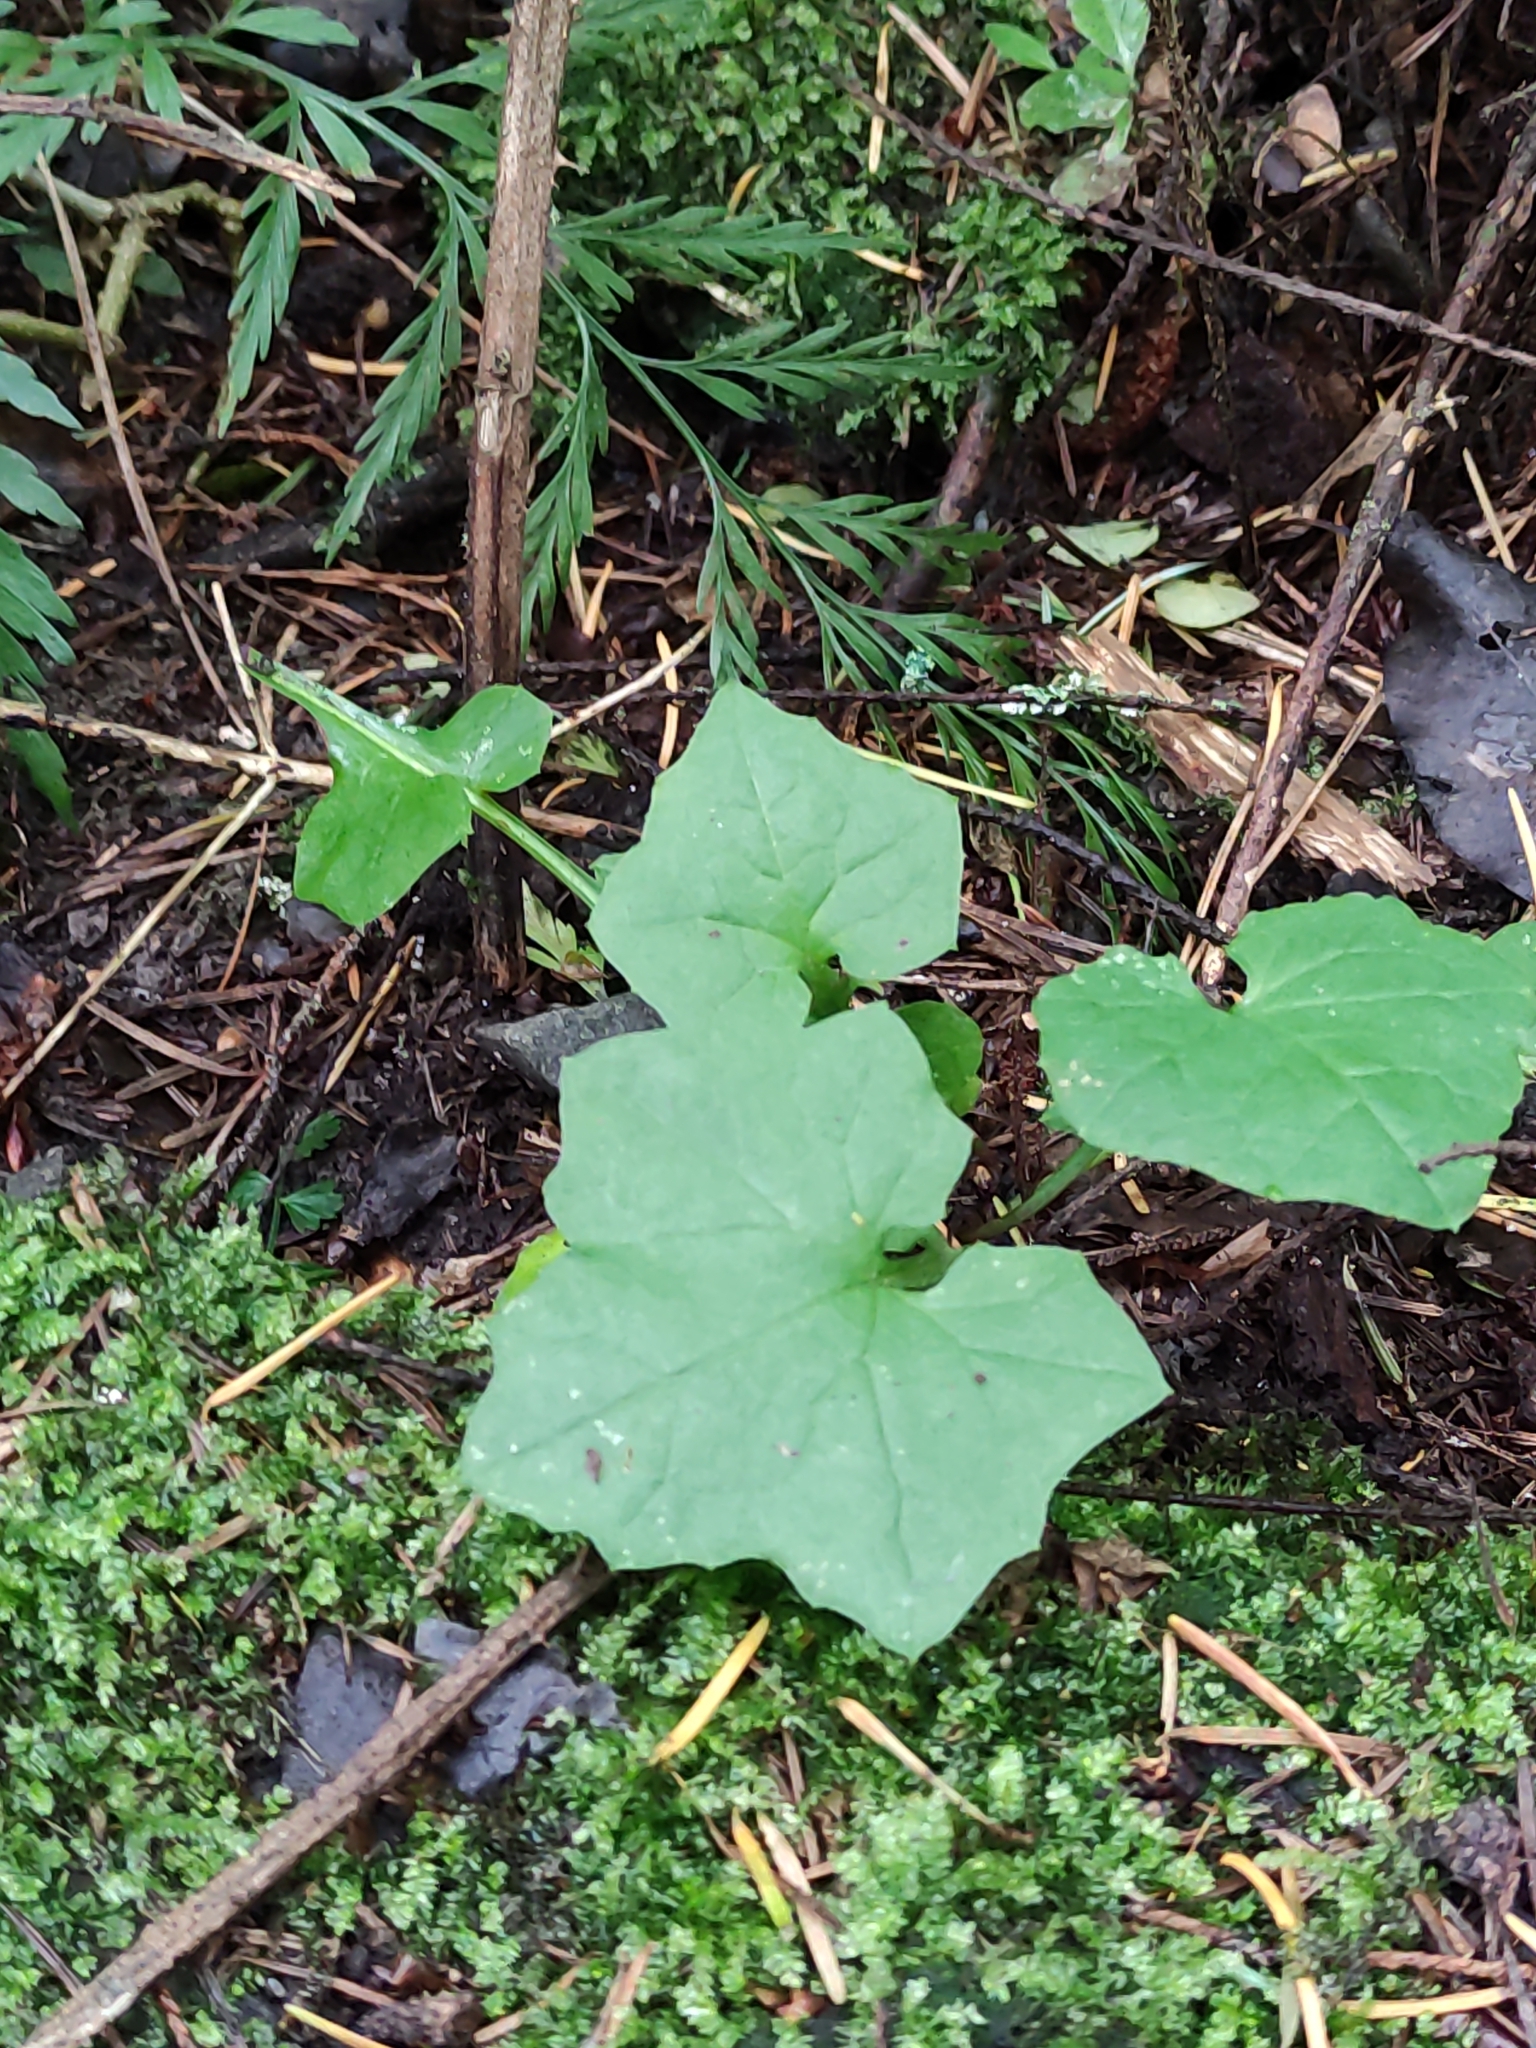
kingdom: Plantae
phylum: Tracheophyta
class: Magnoliopsida
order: Asterales
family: Asteraceae
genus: Mycelis
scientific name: Mycelis muralis
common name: Wall lettuce
